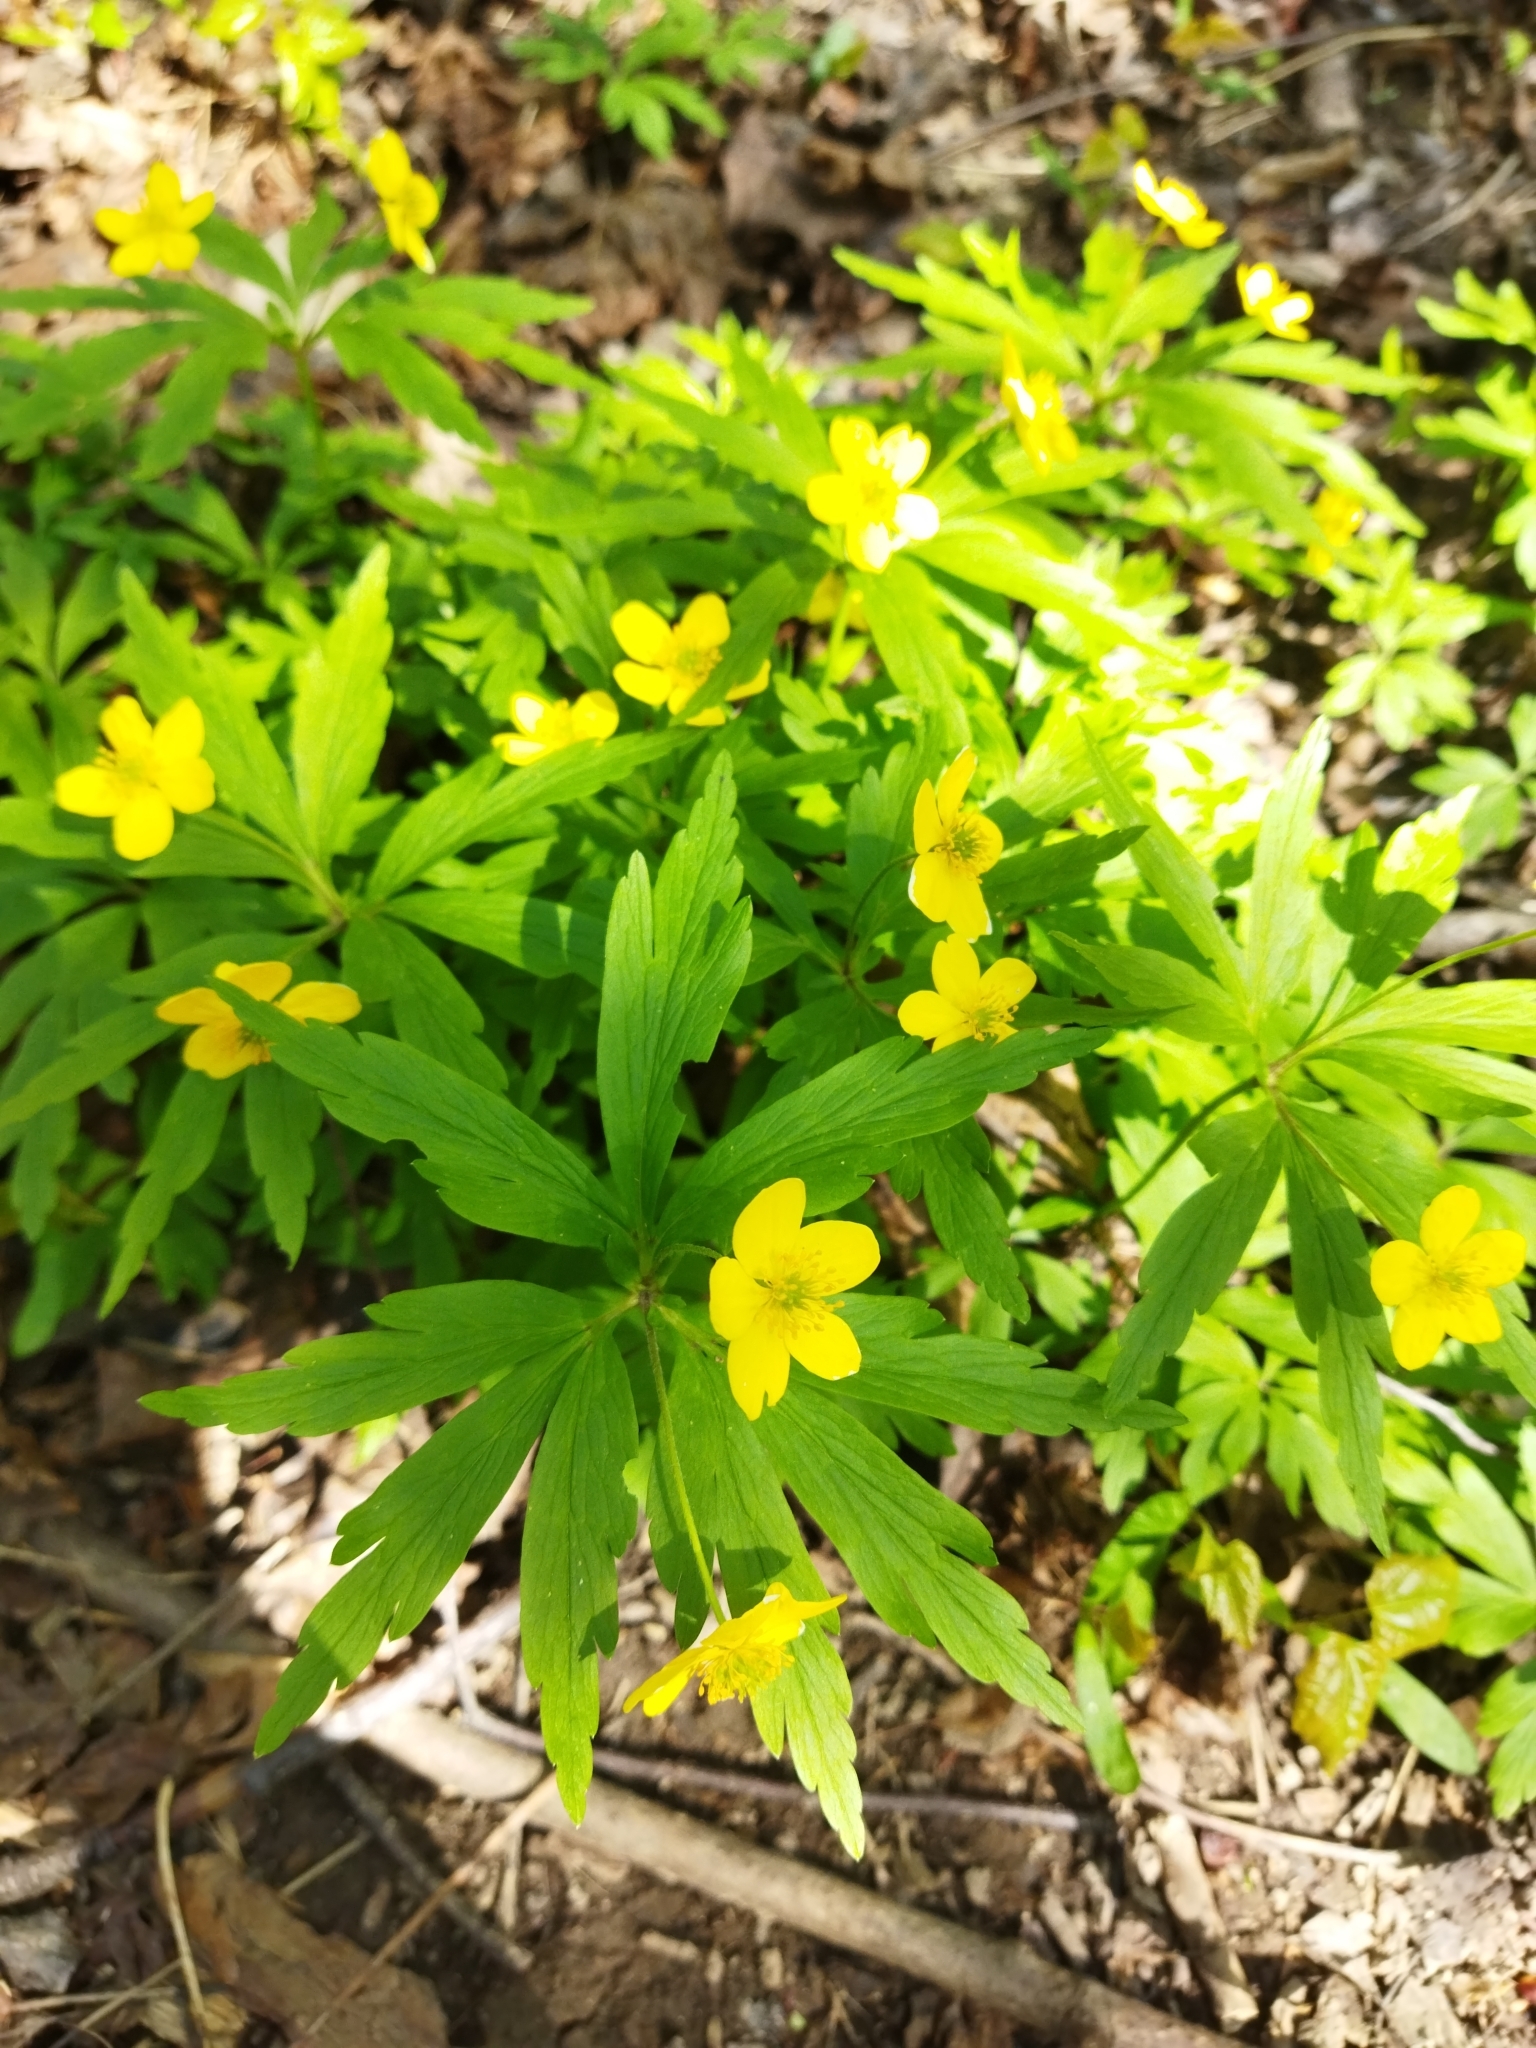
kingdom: Plantae
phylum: Tracheophyta
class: Magnoliopsida
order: Ranunculales
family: Ranunculaceae
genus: Anemone
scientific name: Anemone ranunculoides
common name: Yellow anemone
